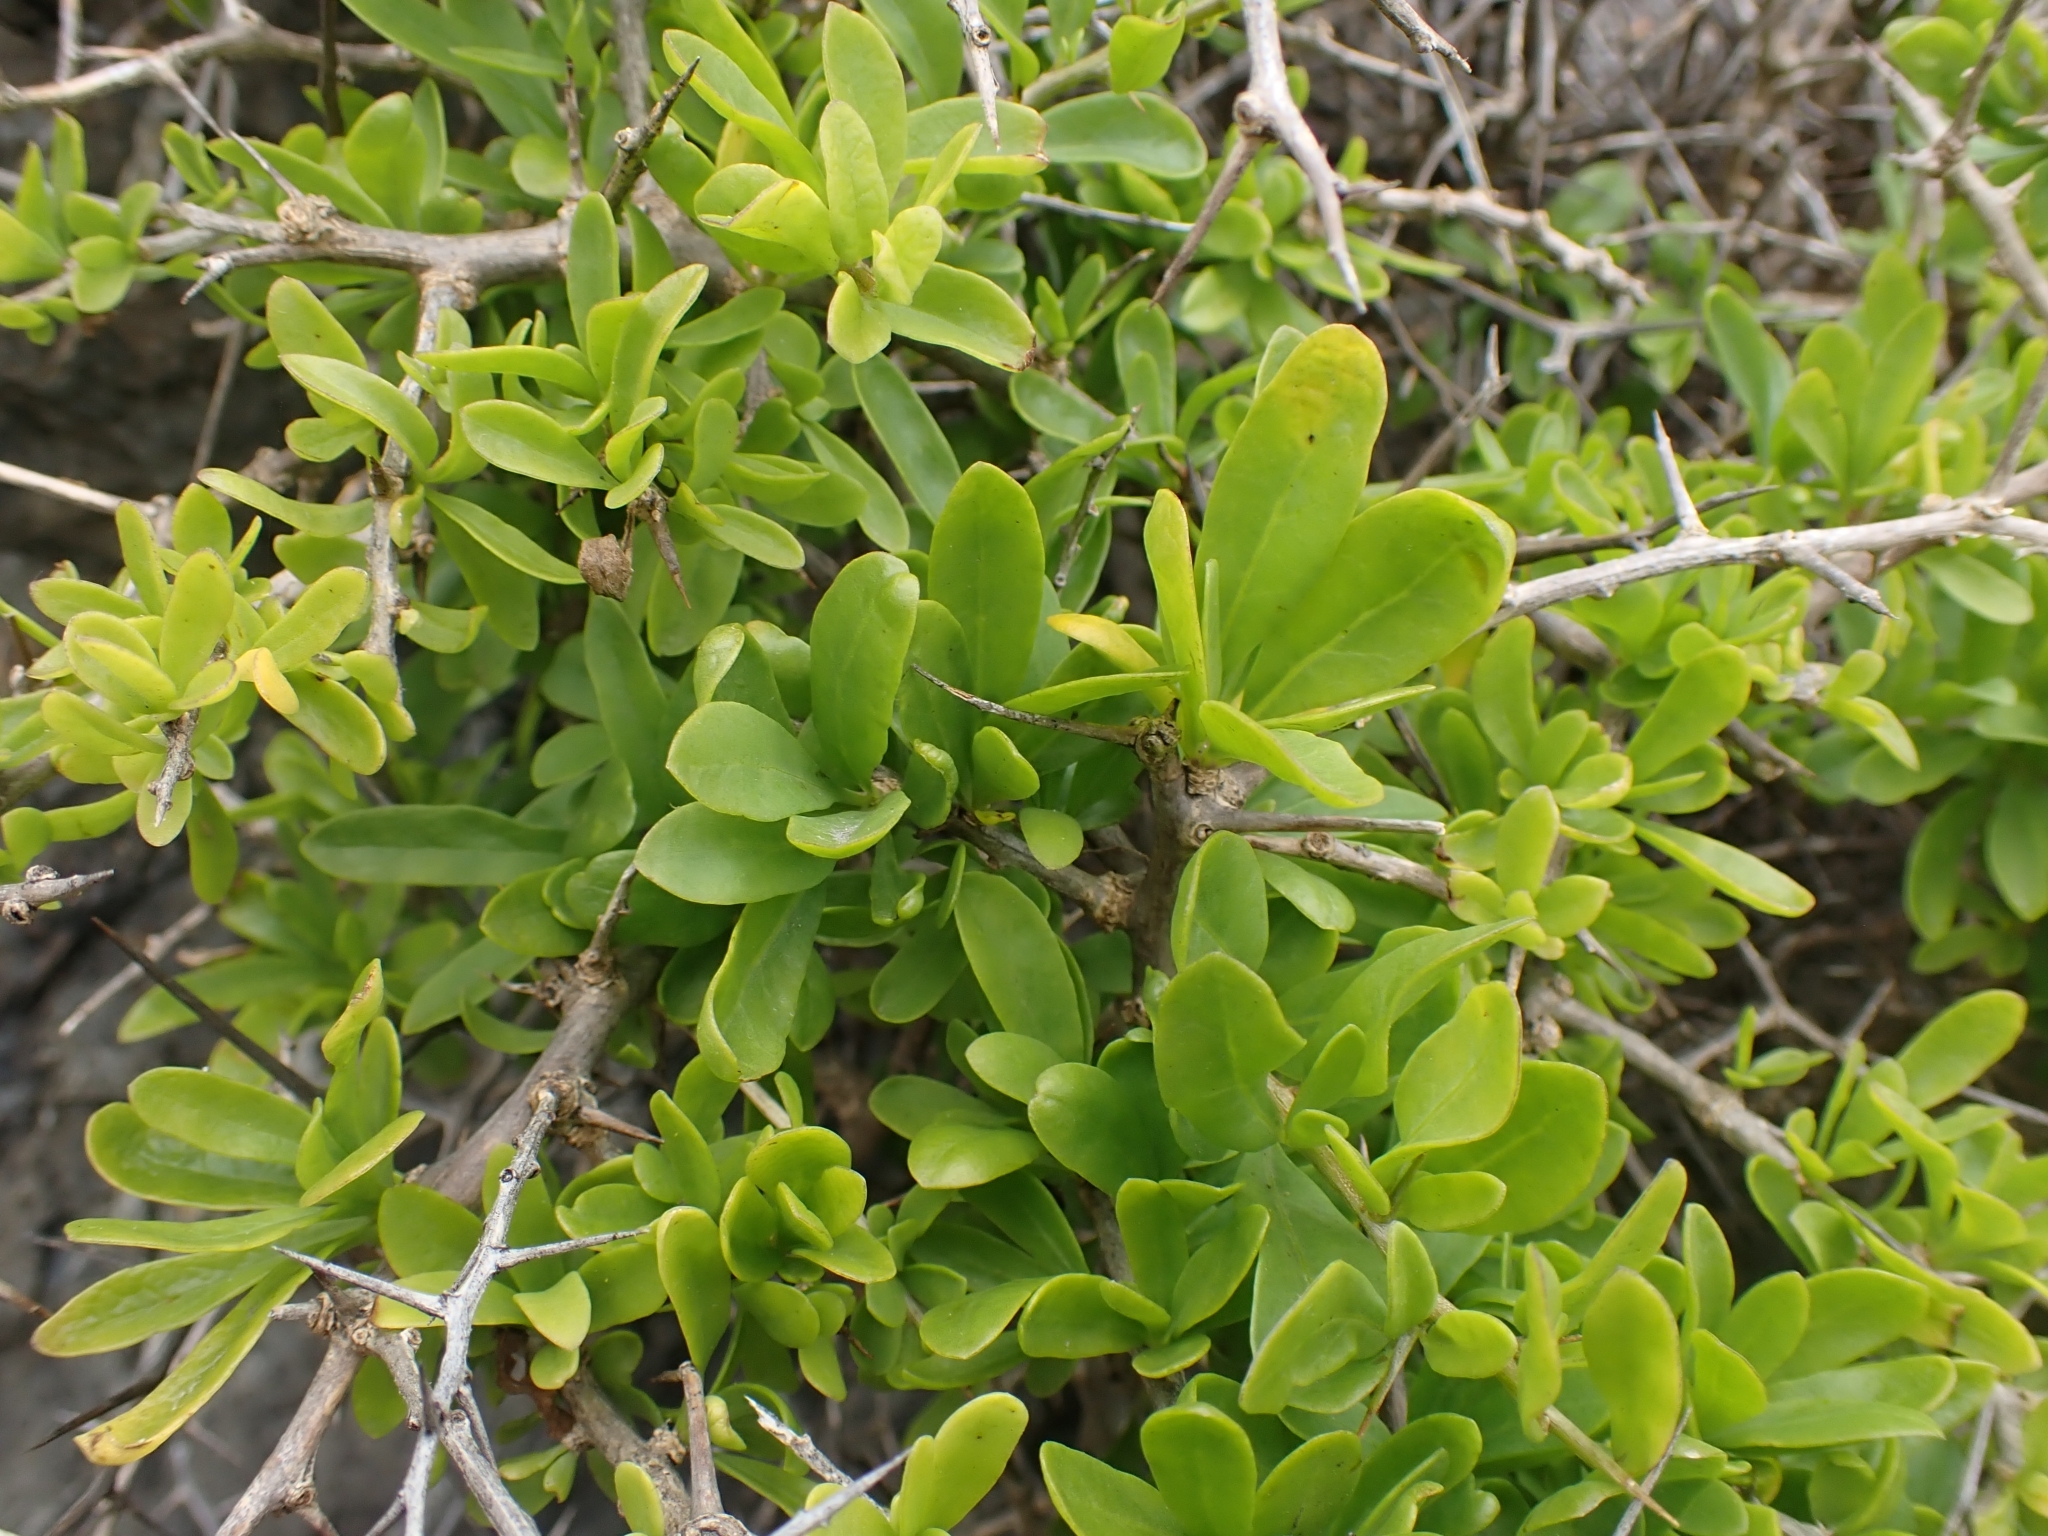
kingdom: Plantae
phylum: Tracheophyta
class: Magnoliopsida
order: Solanales
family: Solanaceae
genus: Lycium
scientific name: Lycium ferocissimum
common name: African boxthorn
